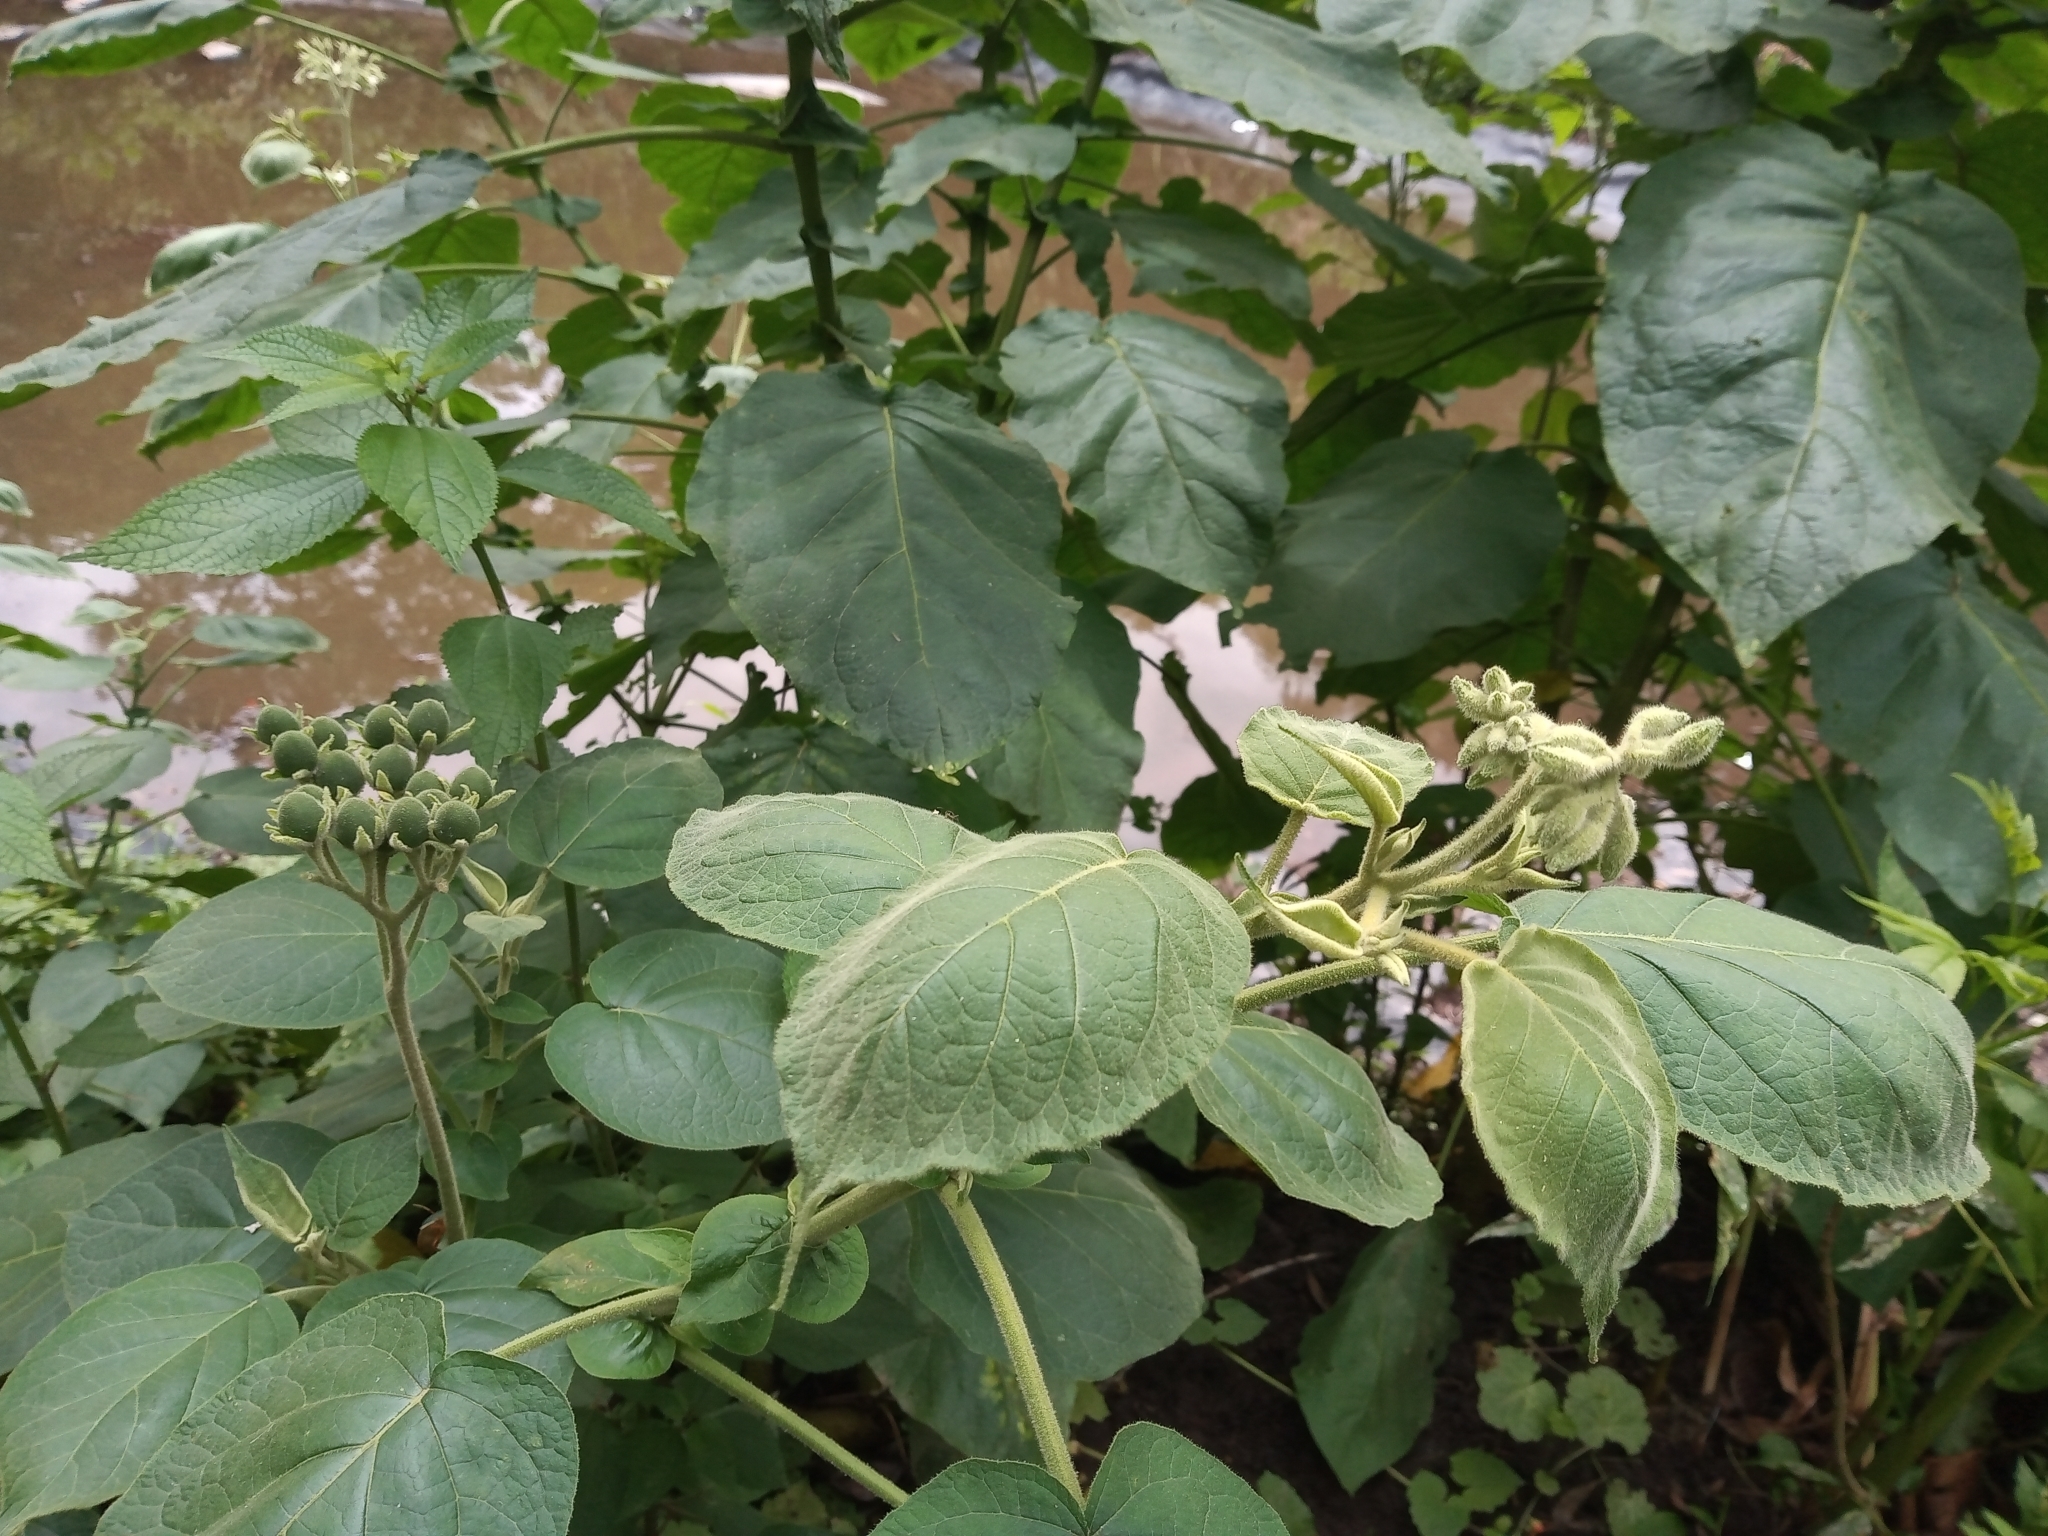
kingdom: Plantae
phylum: Tracheophyta
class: Magnoliopsida
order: Solanales
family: Solanaceae
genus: Solanum
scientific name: Solanum abutiloides
